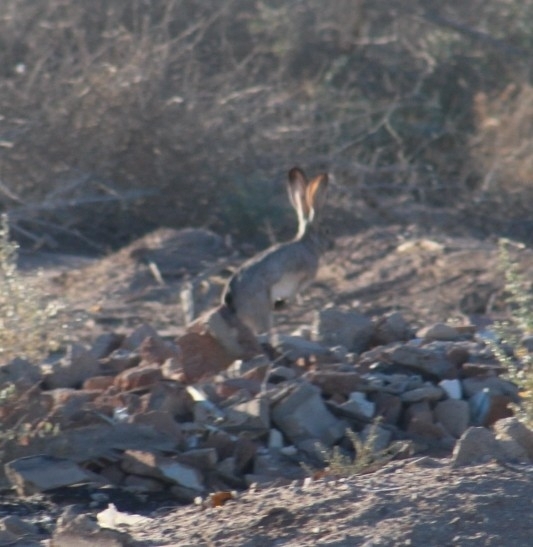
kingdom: Animalia
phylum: Chordata
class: Mammalia
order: Lagomorpha
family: Leporidae
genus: Lepus
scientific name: Lepus californicus
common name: Black-tailed jackrabbit
